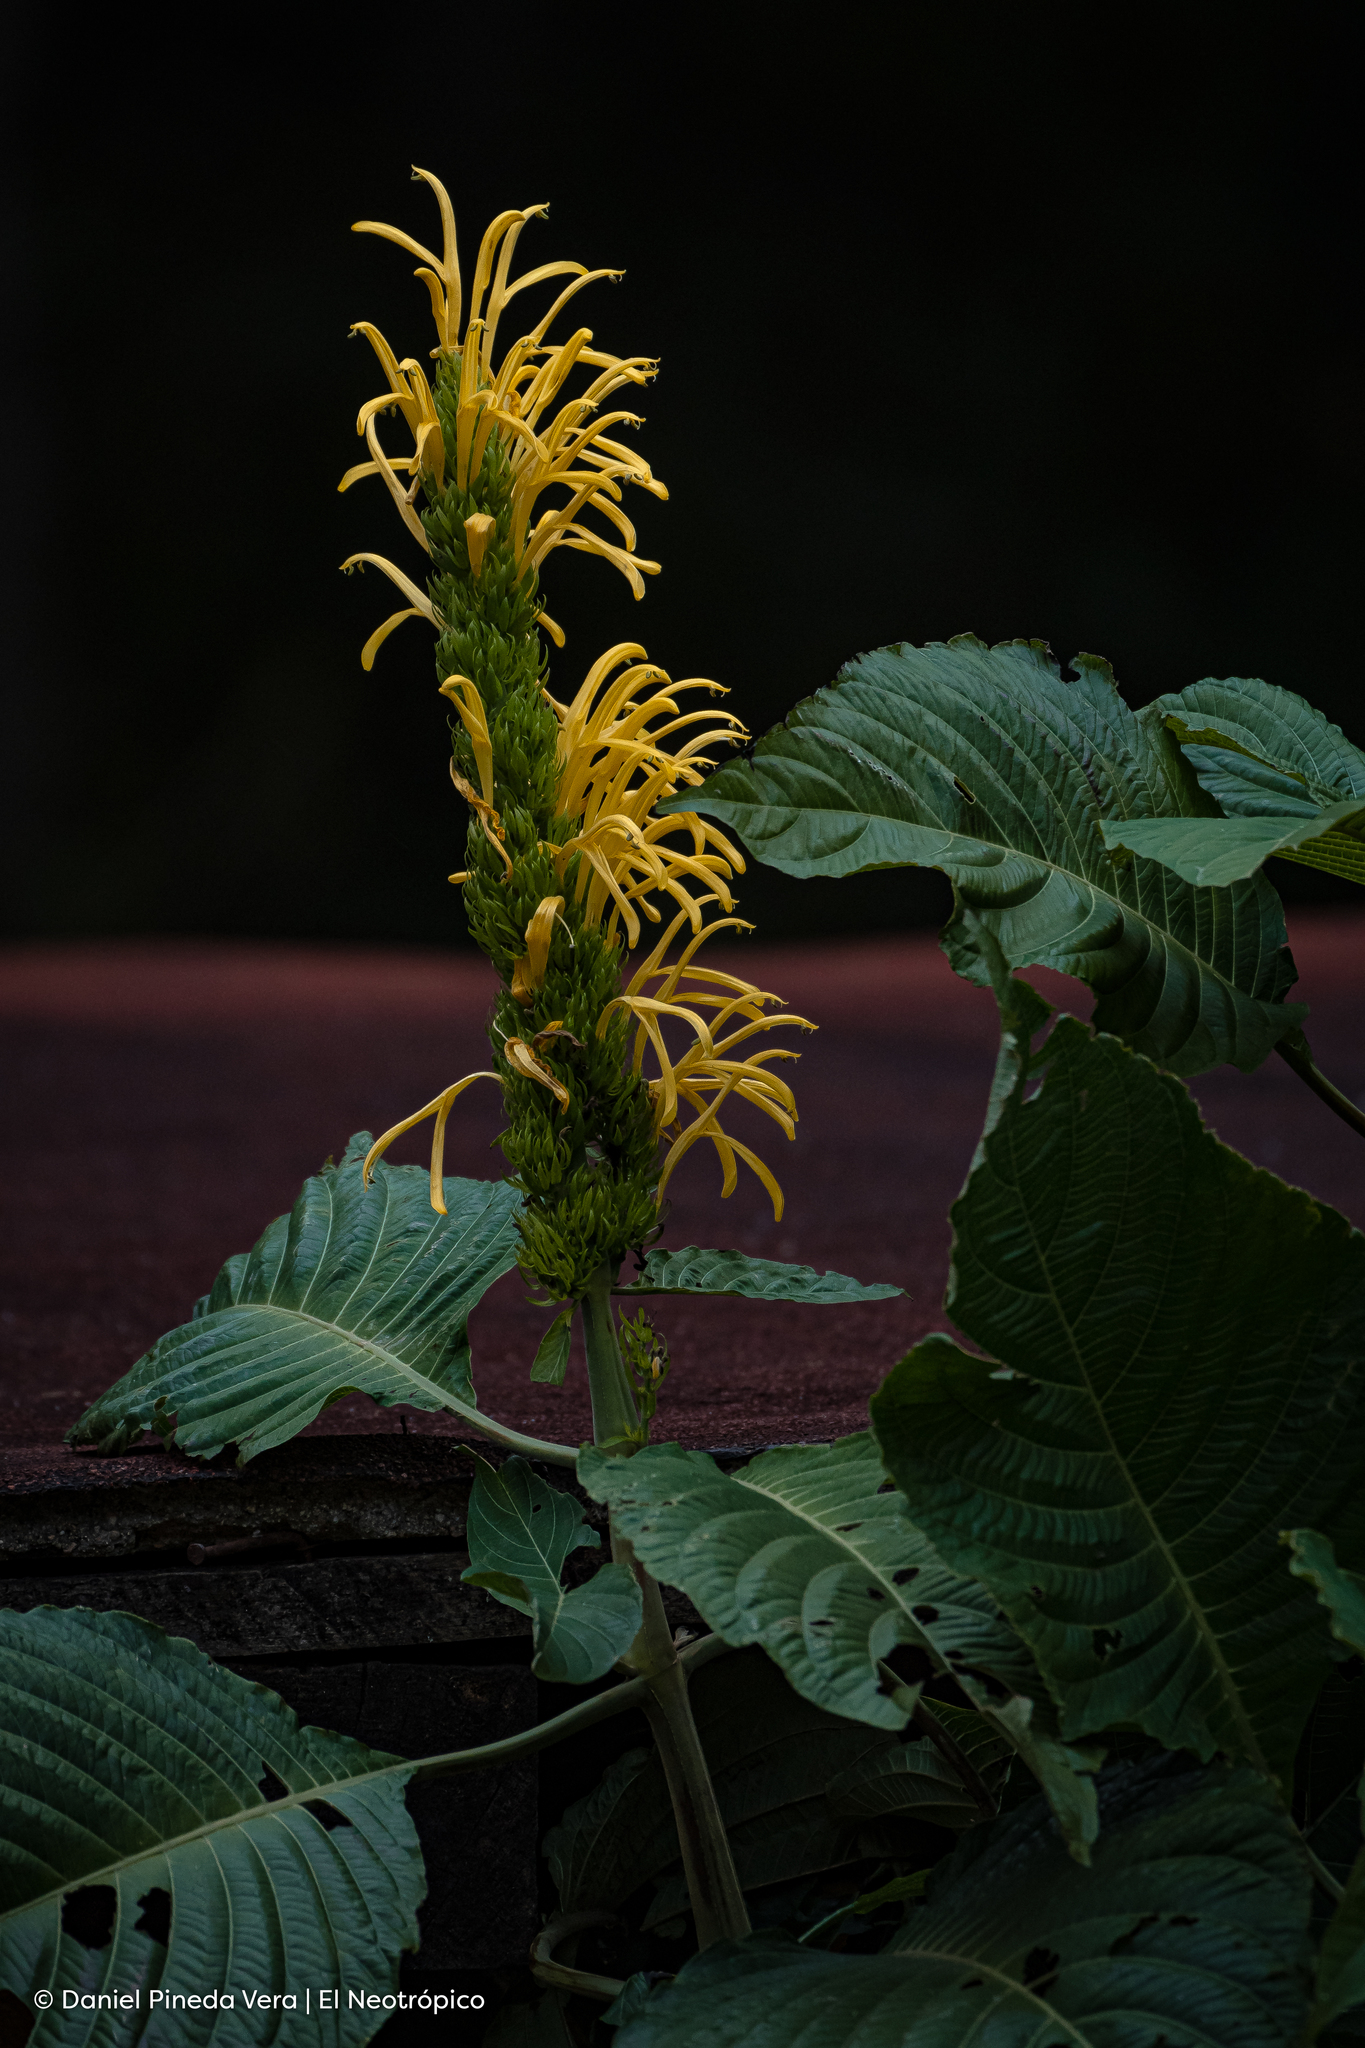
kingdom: Plantae
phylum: Tracheophyta
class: Magnoliopsida
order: Lamiales
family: Acanthaceae
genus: Justicia
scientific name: Justicia aurea
